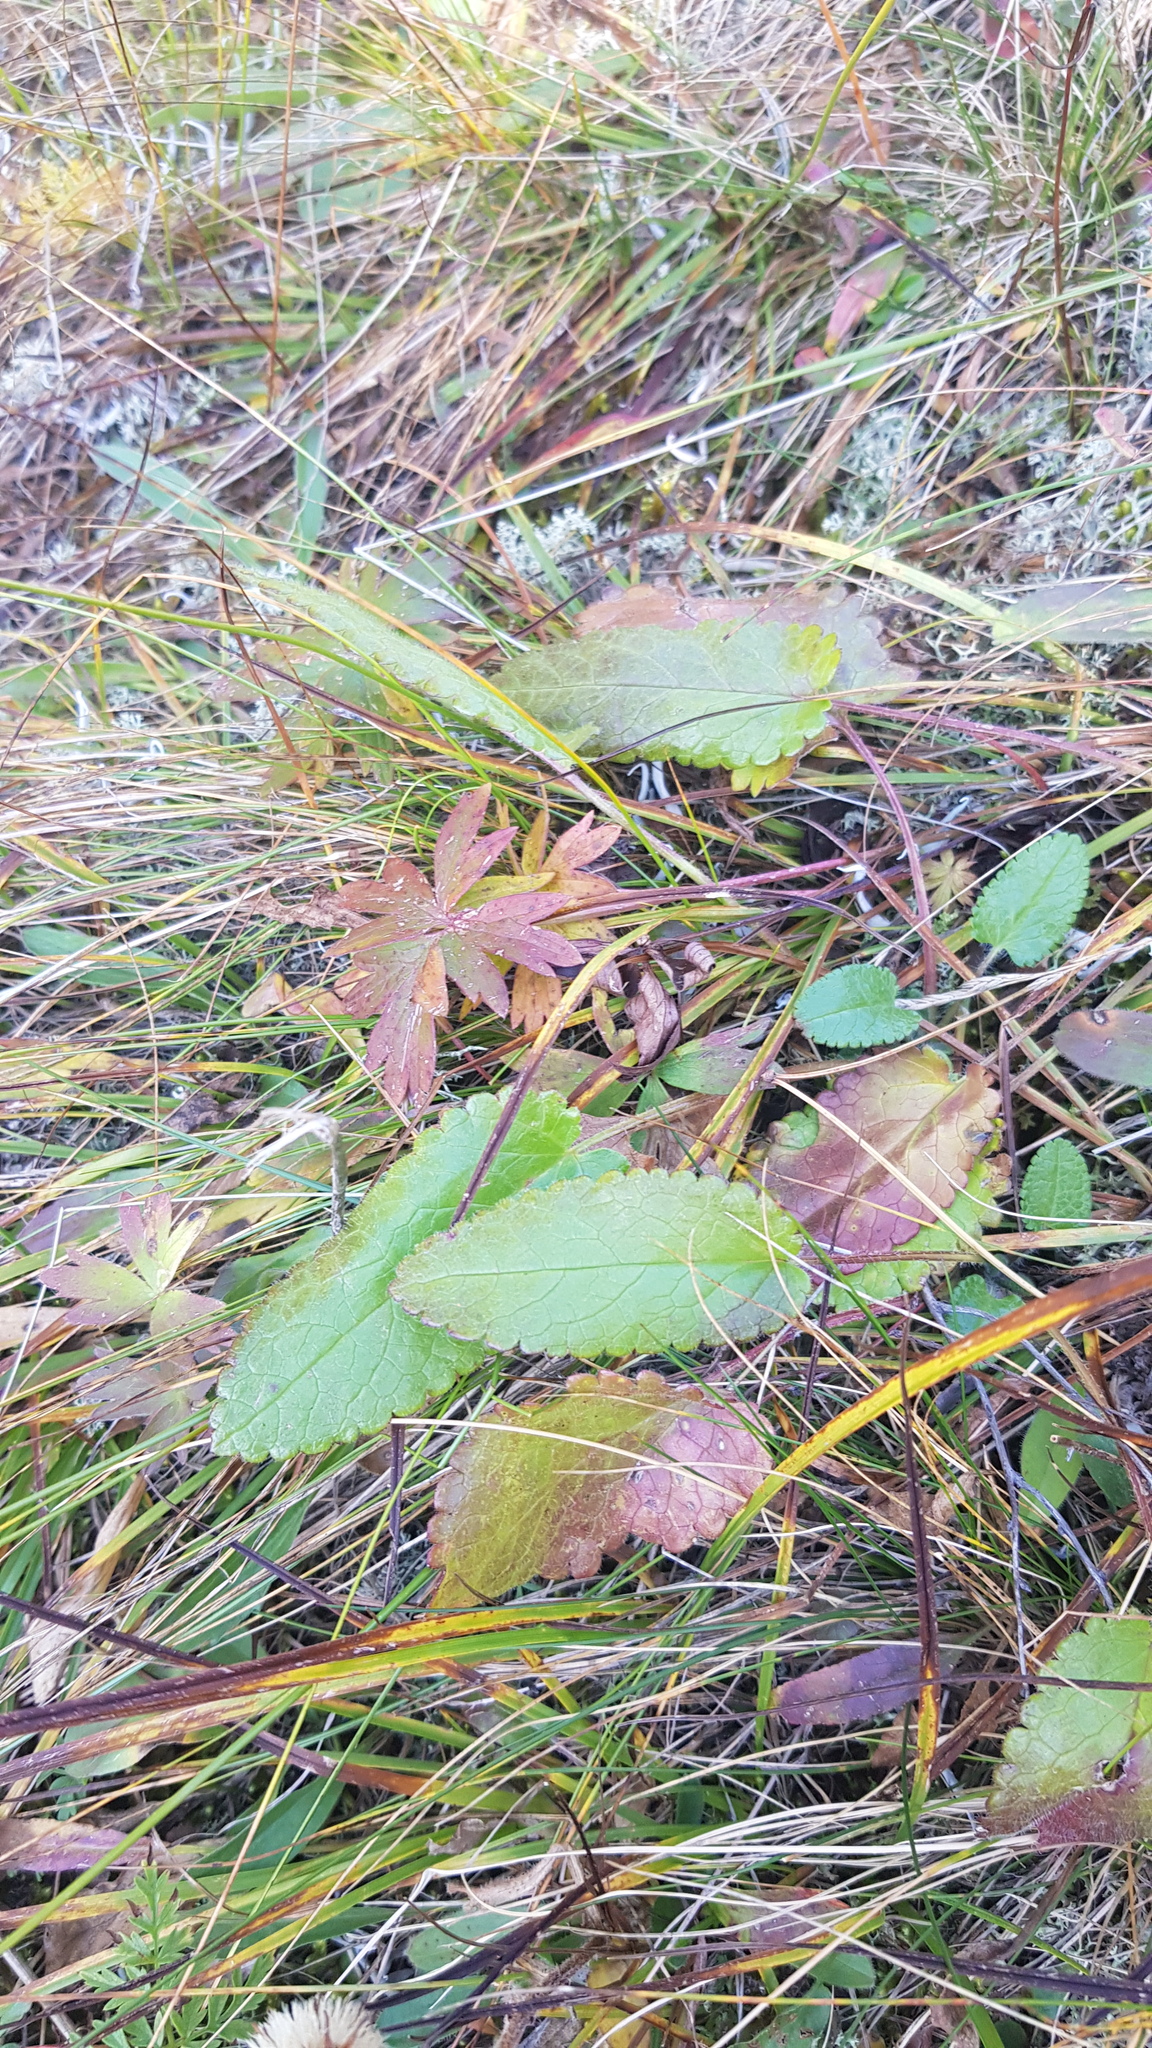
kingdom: Plantae
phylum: Tracheophyta
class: Magnoliopsida
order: Lamiales
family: Lamiaceae
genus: Dracocephalum
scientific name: Dracocephalum grandiflorum
